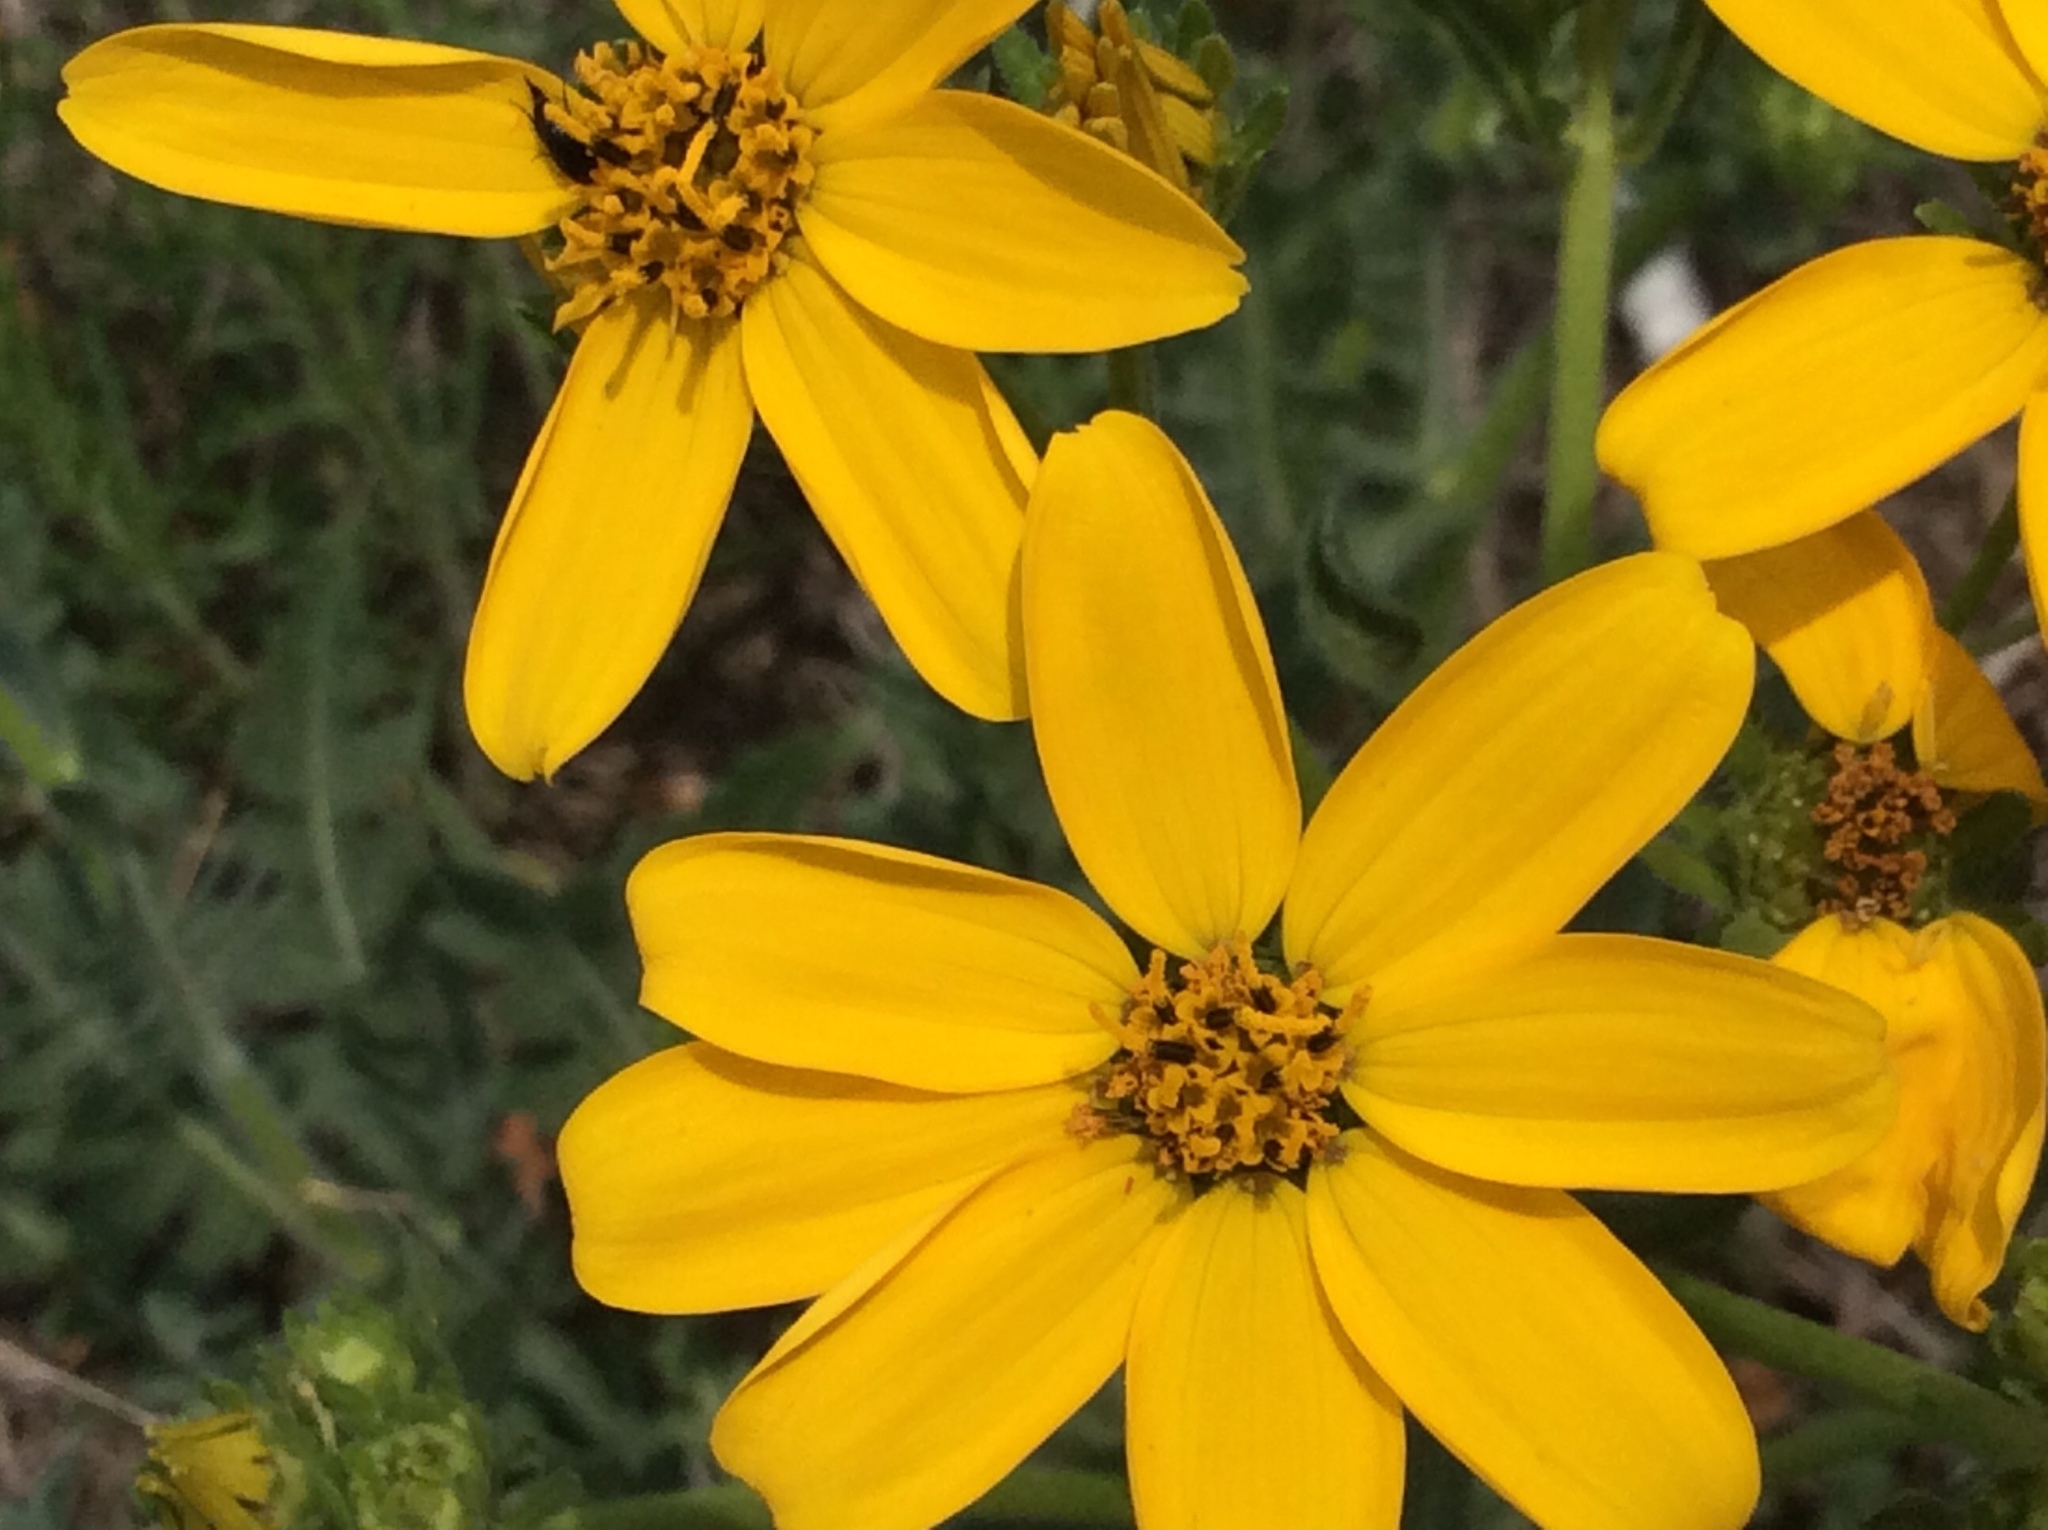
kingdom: Plantae
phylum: Tracheophyta
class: Magnoliopsida
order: Asterales
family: Asteraceae
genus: Engelmannia
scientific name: Engelmannia peristenia
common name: Engelmann's daisy
